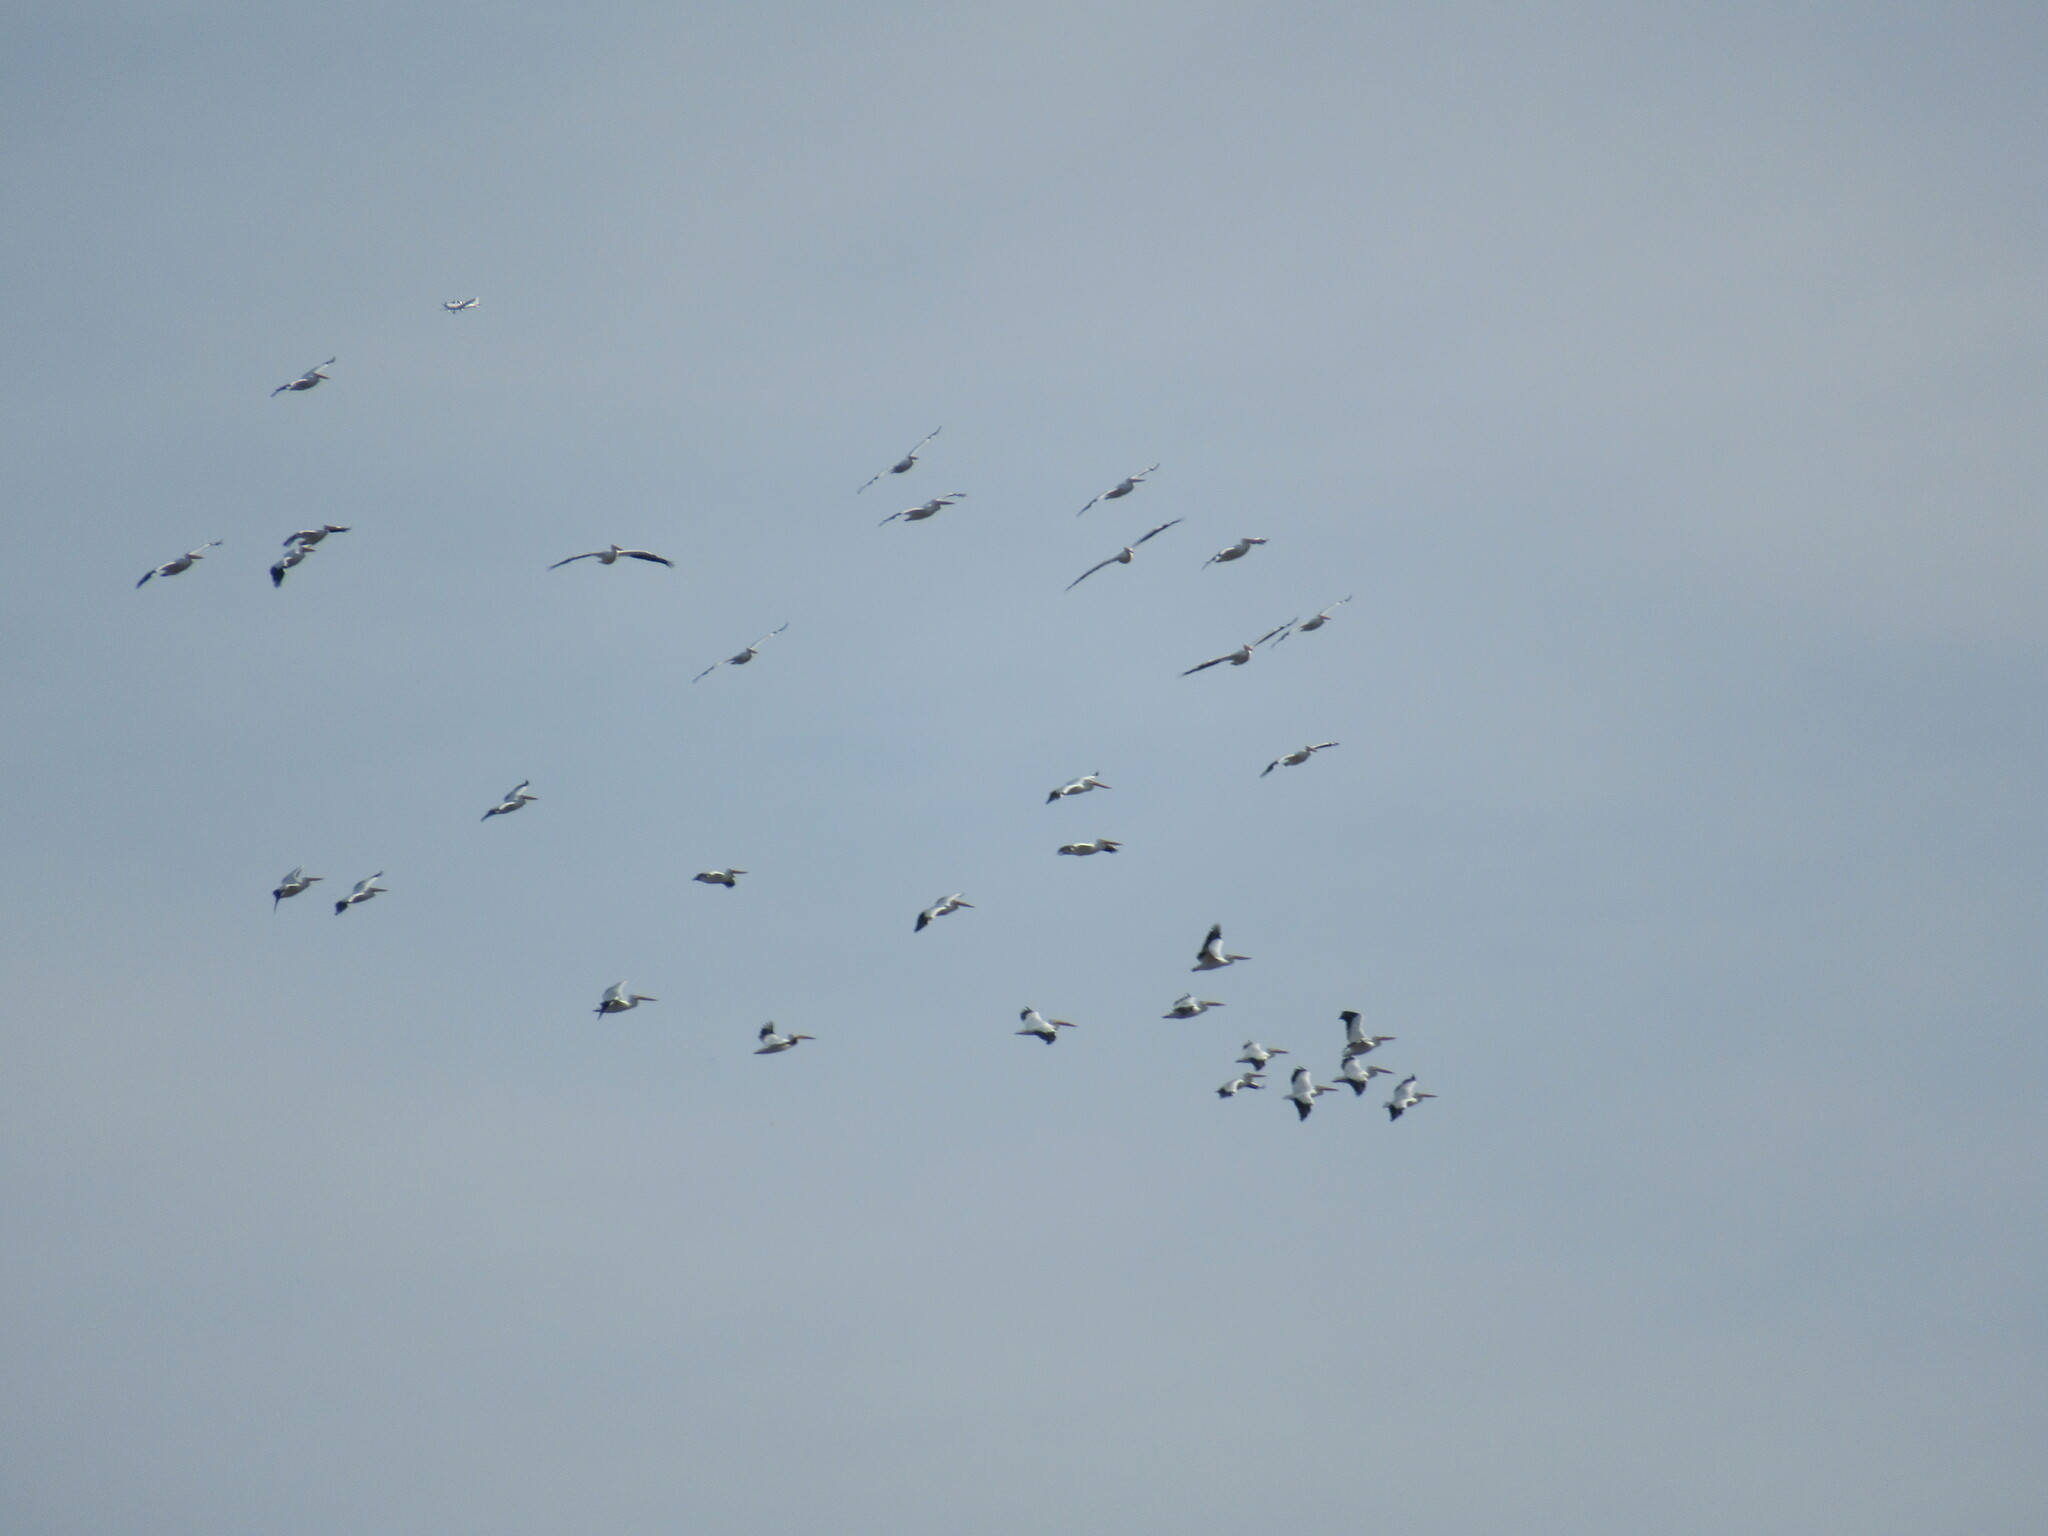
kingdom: Animalia
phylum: Chordata
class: Aves
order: Pelecaniformes
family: Pelecanidae
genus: Pelecanus
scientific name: Pelecanus erythrorhynchos
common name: American white pelican
